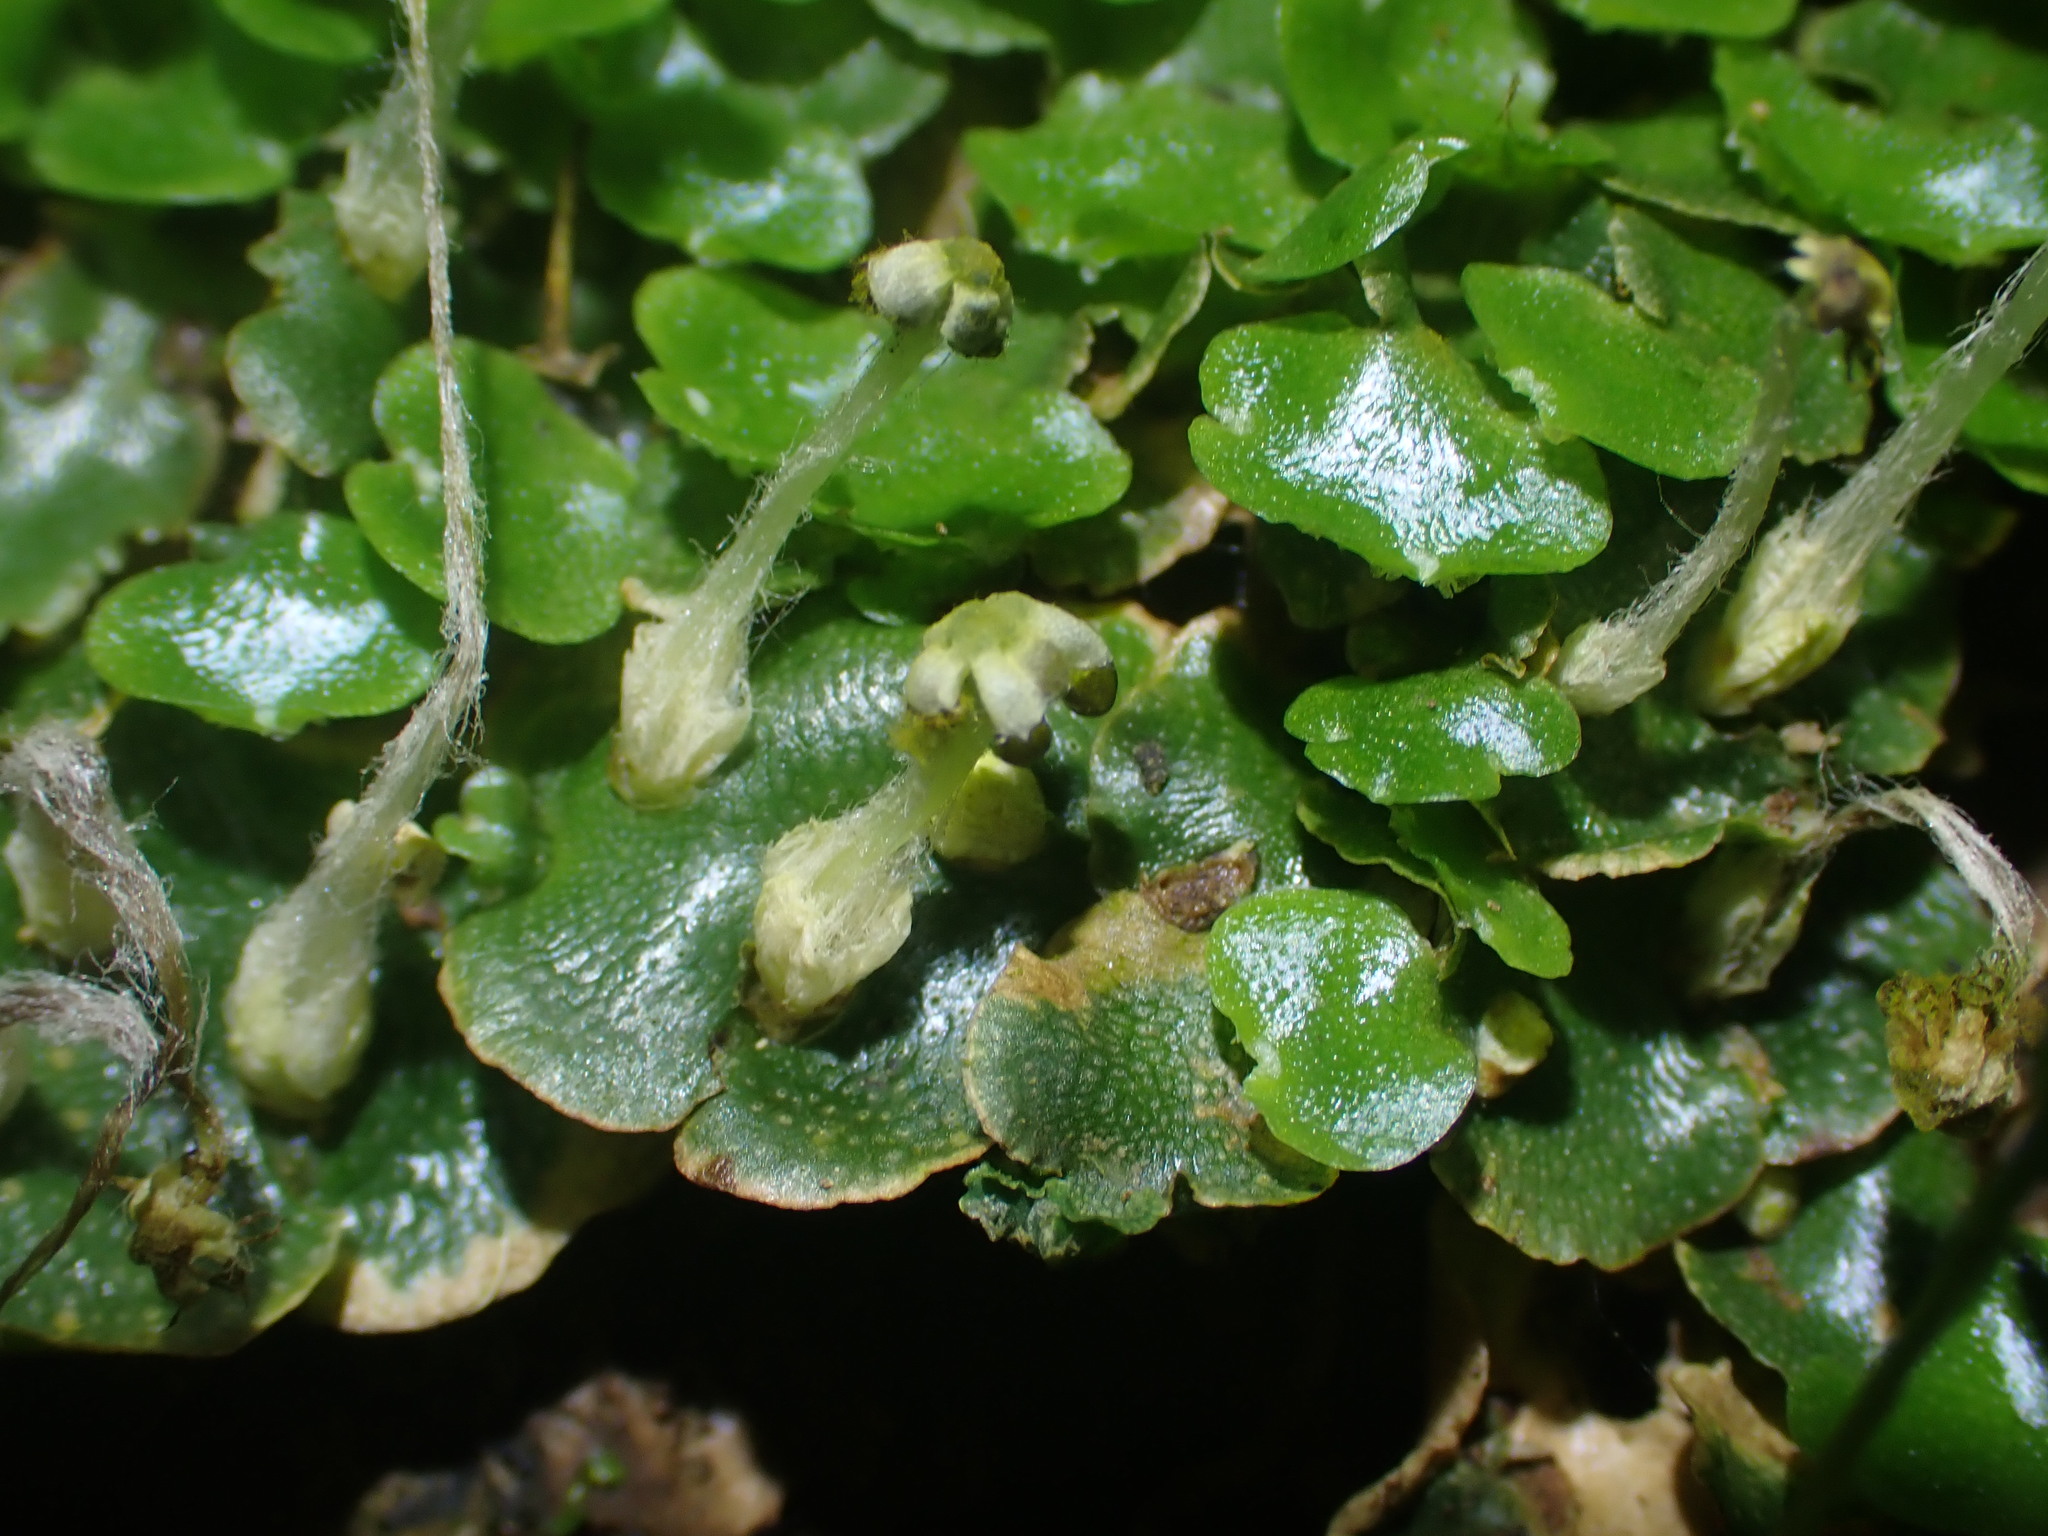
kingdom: Plantae
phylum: Marchantiophyta
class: Marchantiopsida
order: Lunulariales
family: Lunulariaceae
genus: Lunularia
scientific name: Lunularia cruciata
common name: Crescent-cup liverwort
